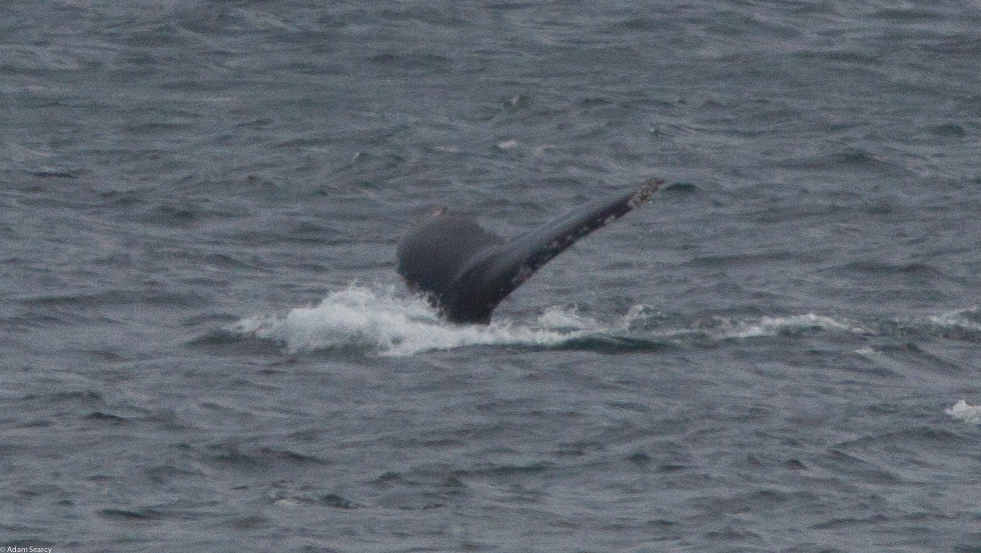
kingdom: Animalia
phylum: Chordata
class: Mammalia
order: Cetacea
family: Balaenopteridae
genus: Megaptera
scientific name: Megaptera novaeangliae
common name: Humpback whale
